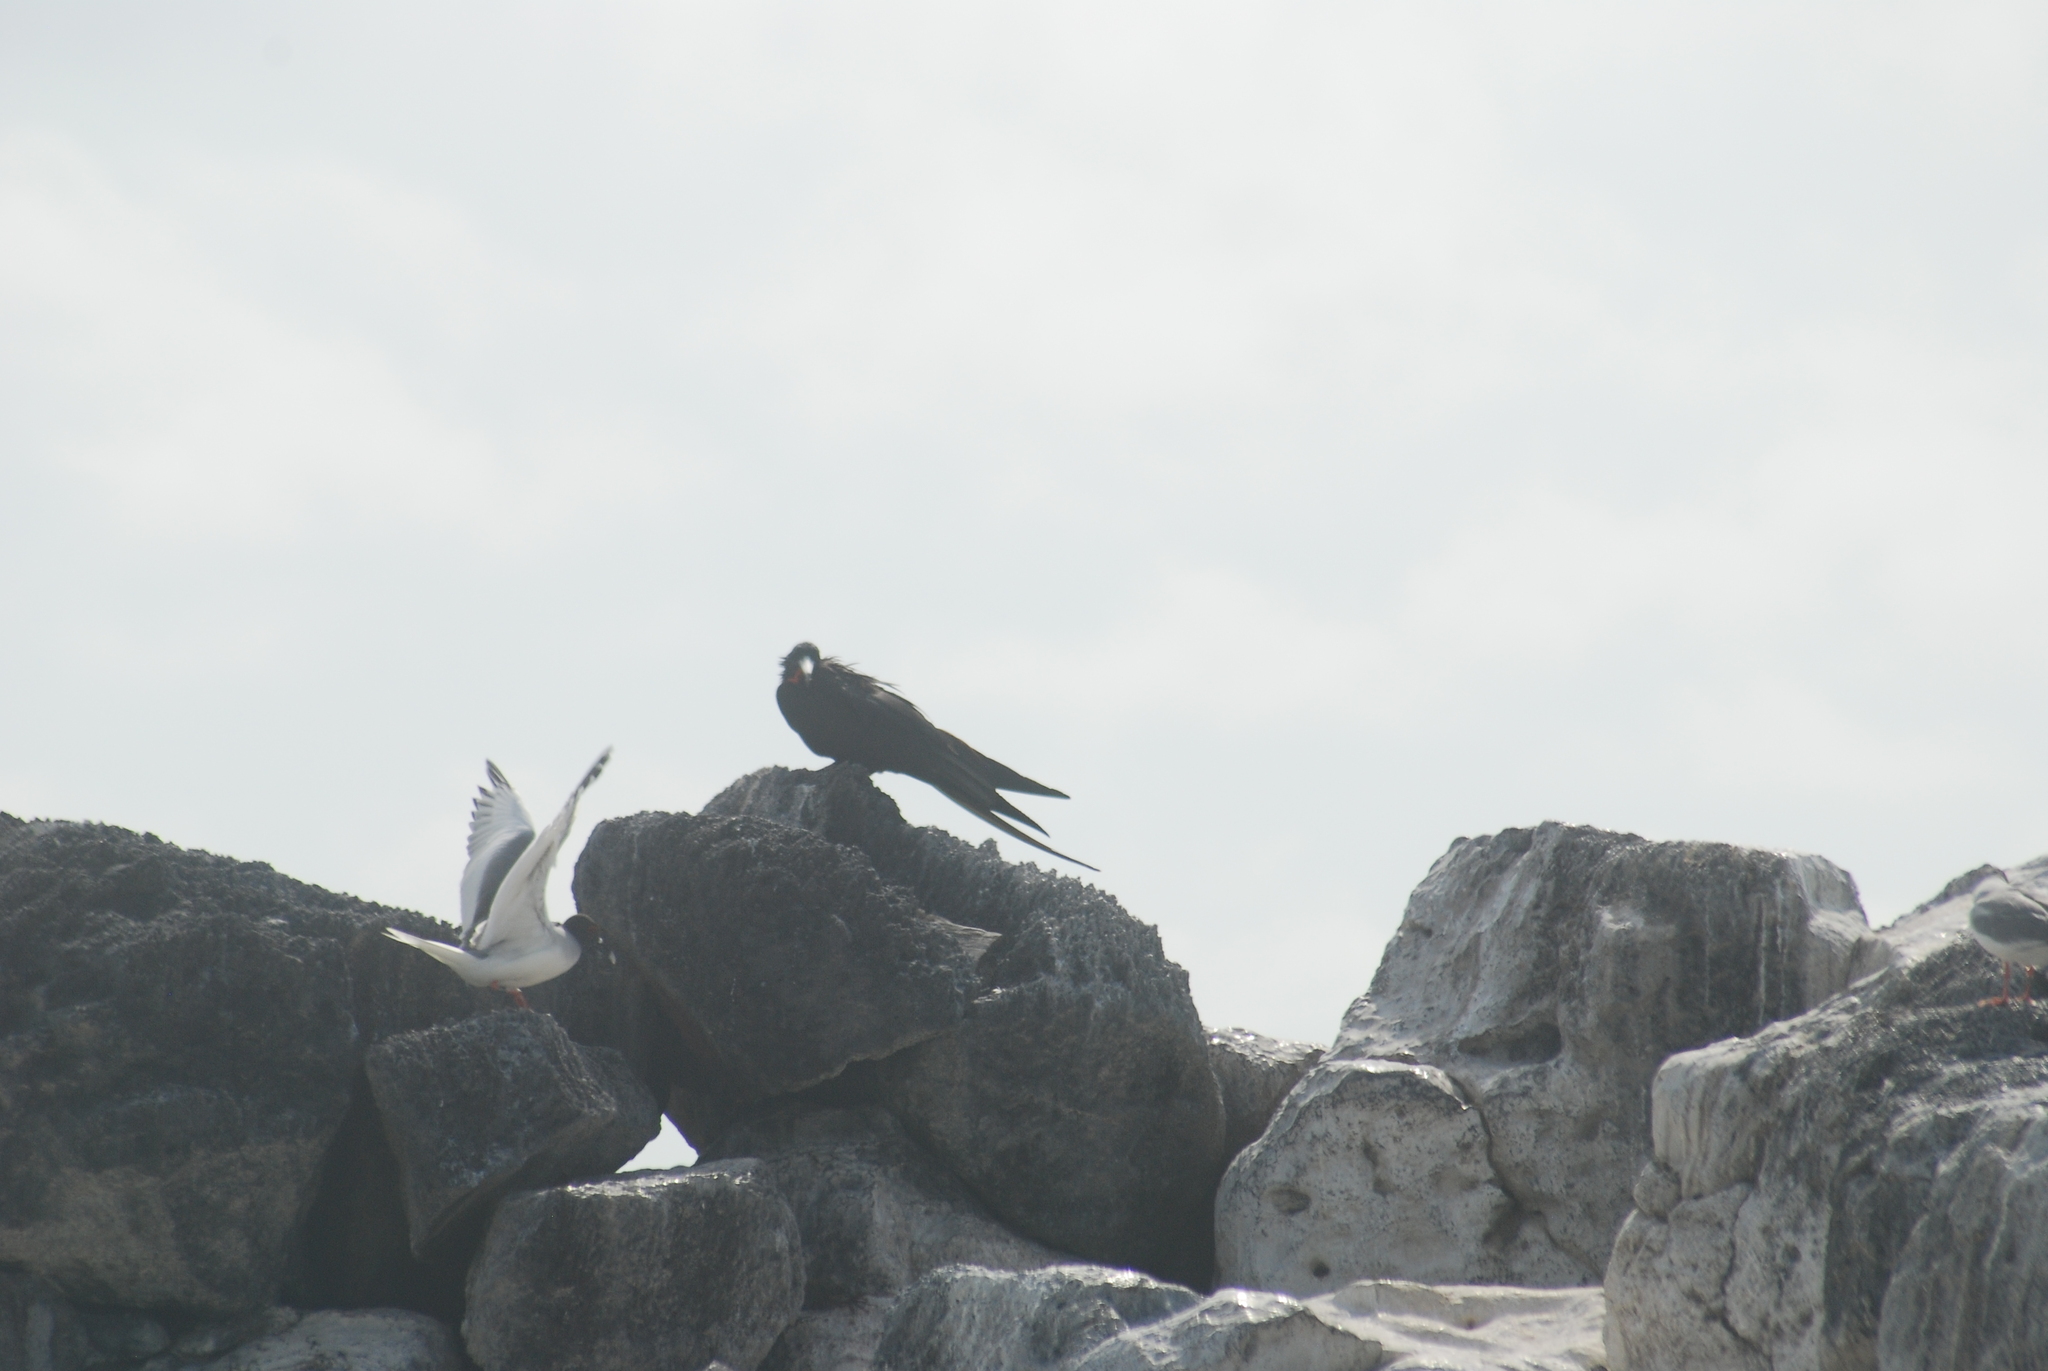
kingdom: Animalia
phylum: Chordata
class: Aves
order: Charadriiformes
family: Laridae
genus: Creagrus
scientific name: Creagrus furcatus
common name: Swallow-tailed gull
